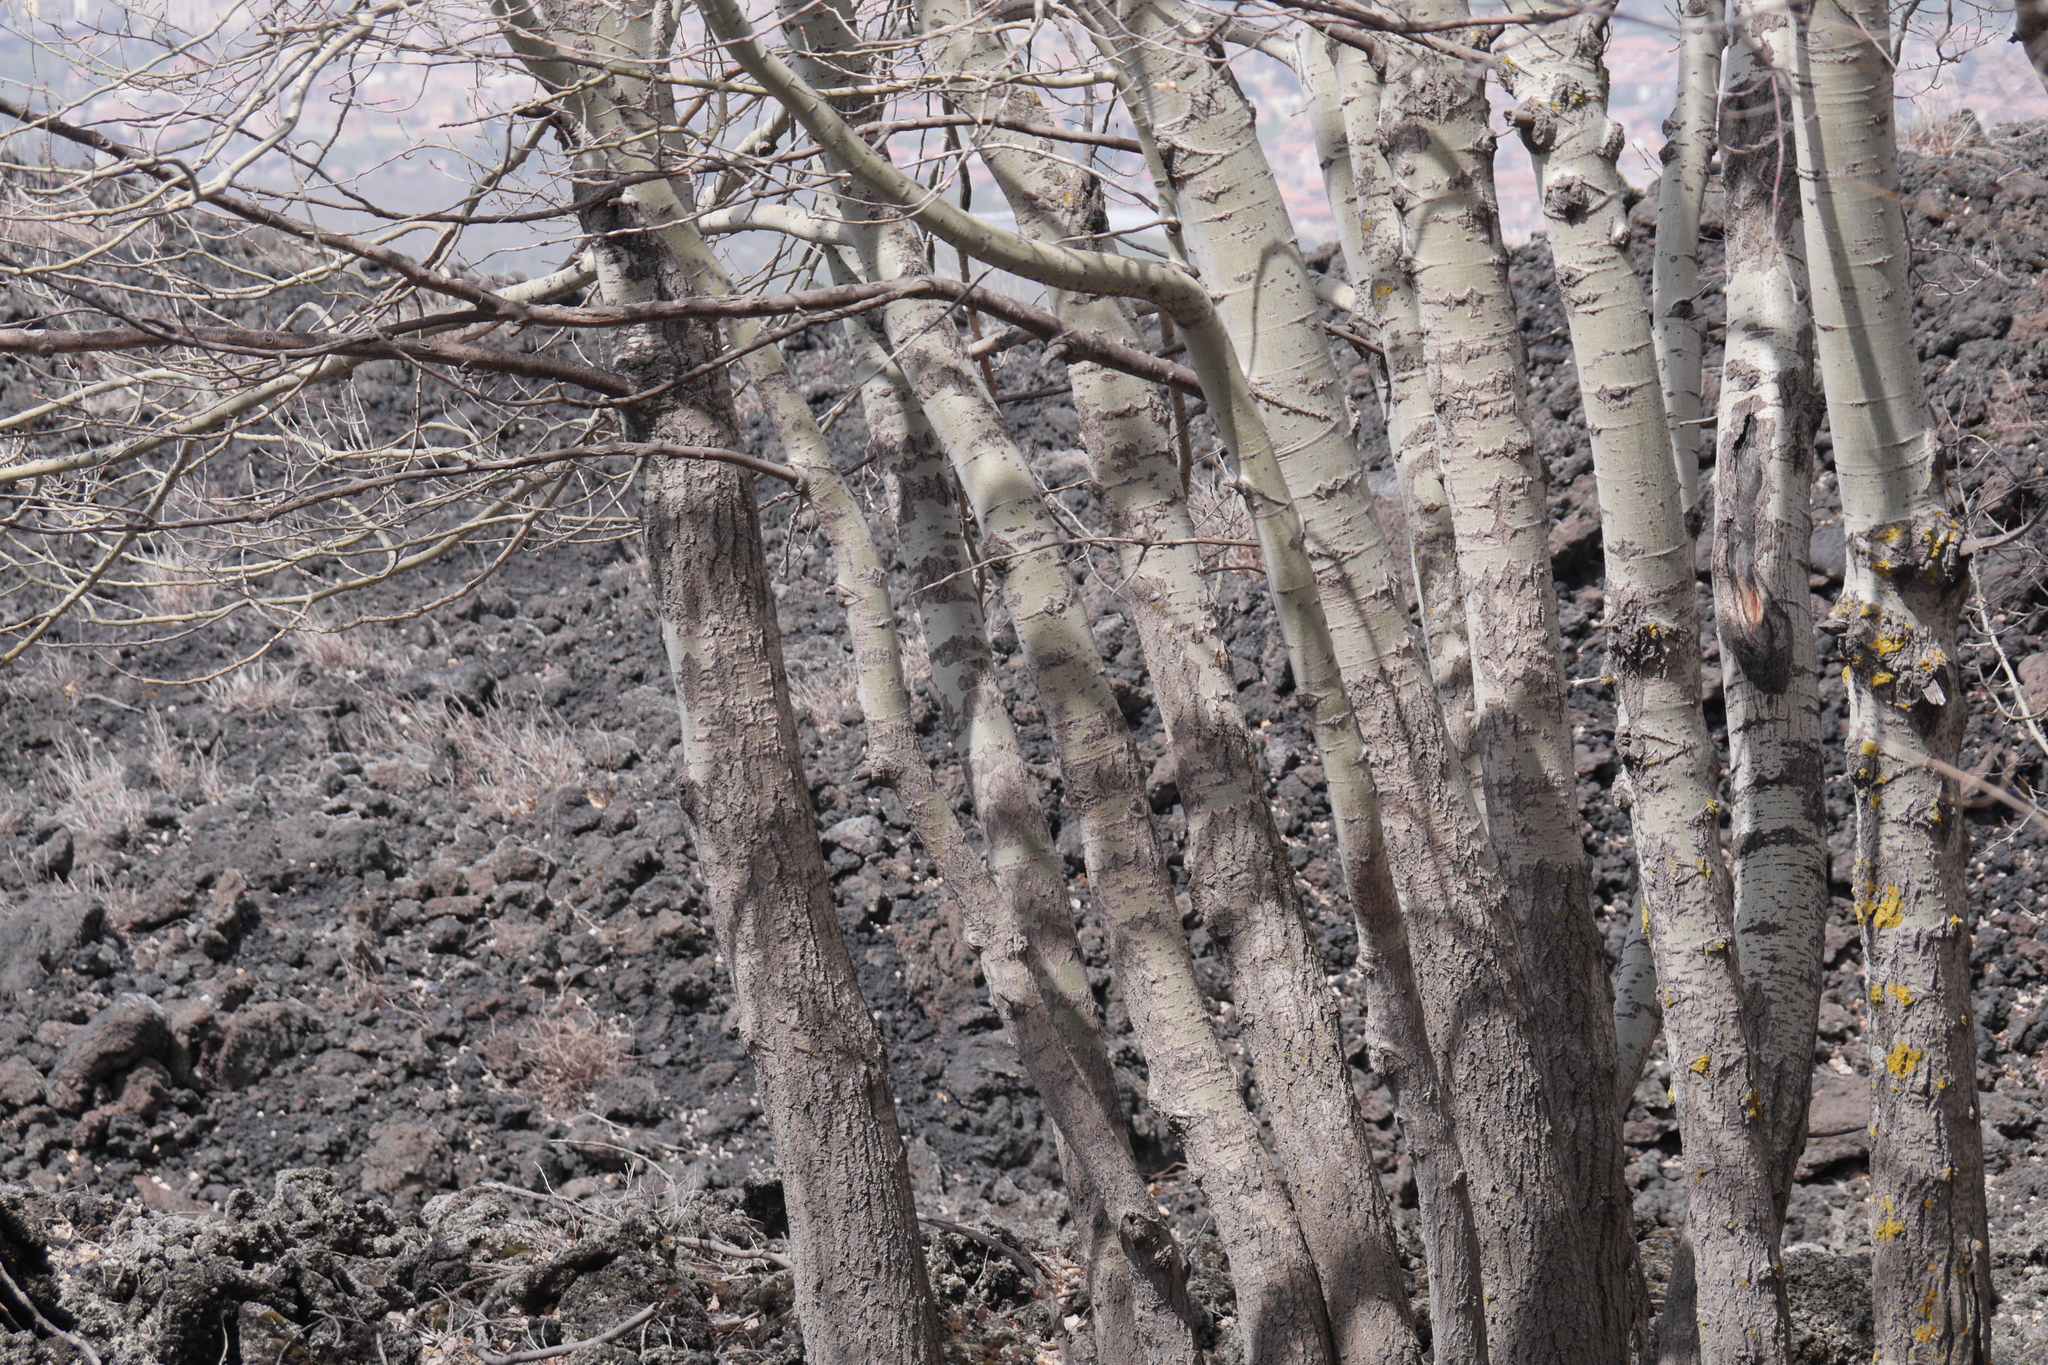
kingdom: Plantae
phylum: Tracheophyta
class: Magnoliopsida
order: Fagales
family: Betulaceae
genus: Betula
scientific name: Betula pendula
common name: Silver birch
